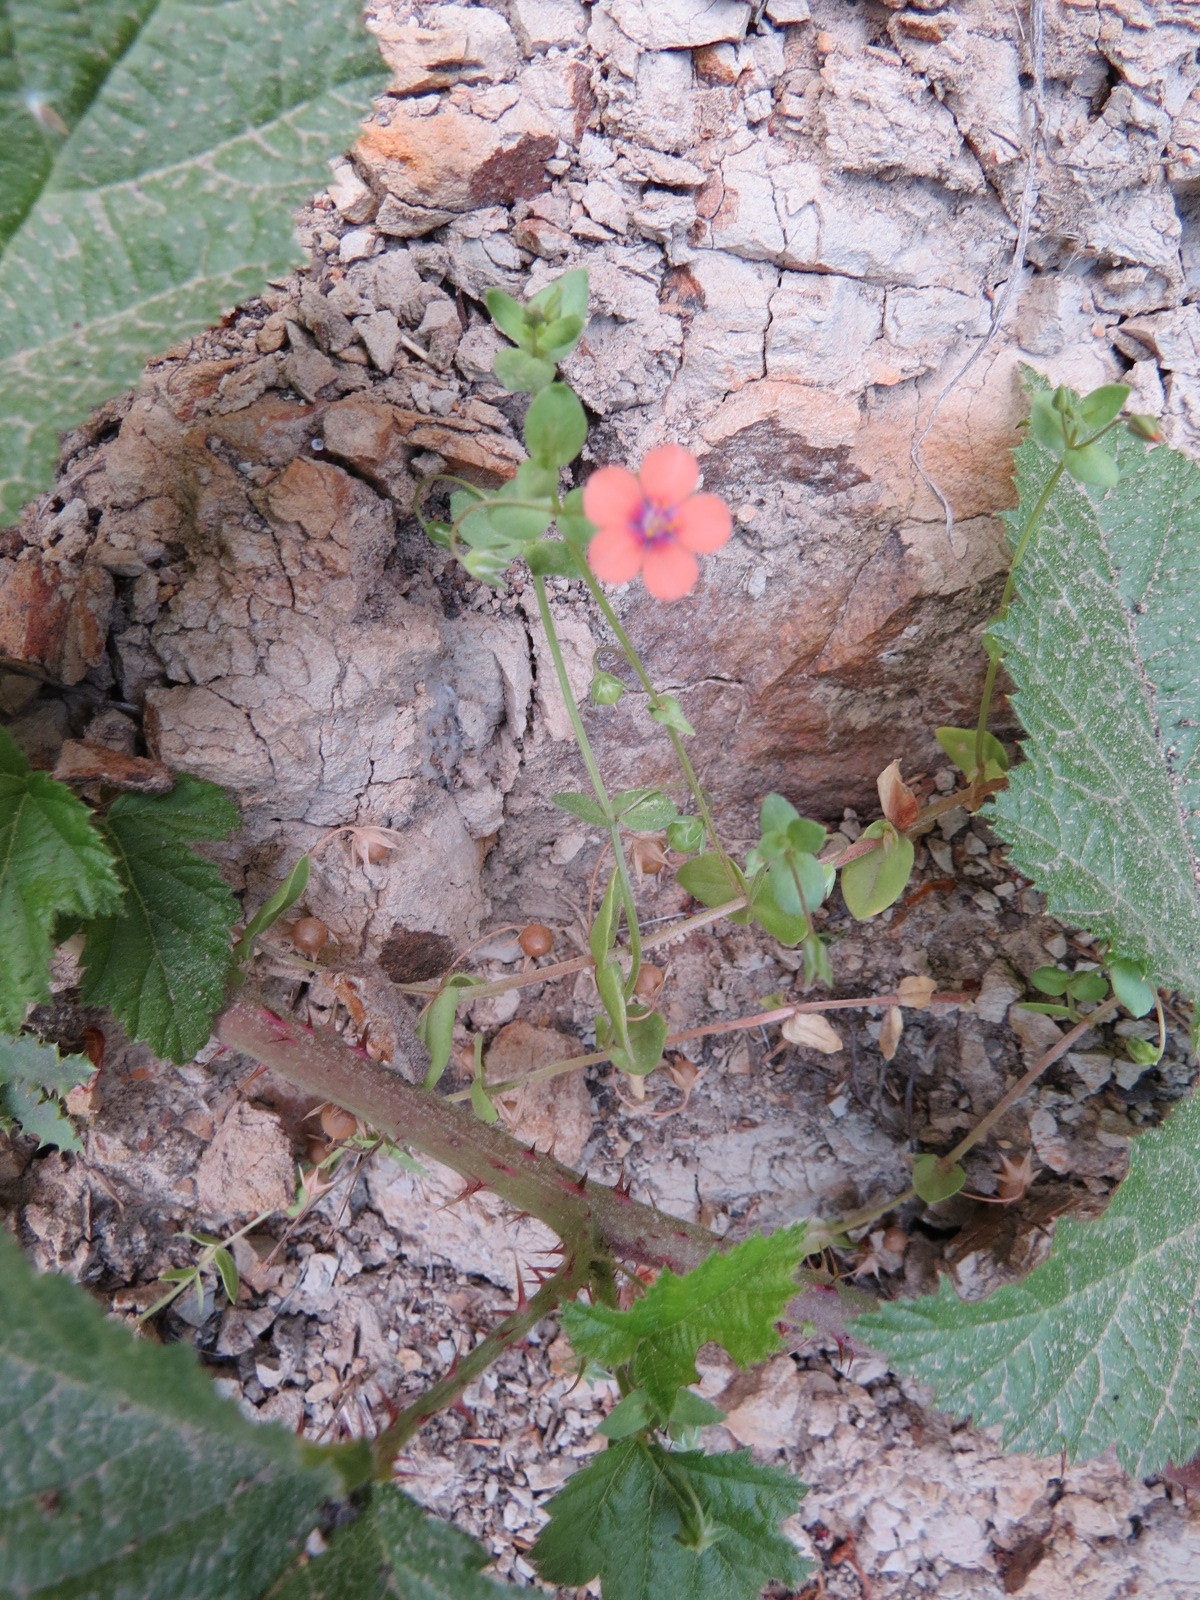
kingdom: Plantae
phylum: Tracheophyta
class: Magnoliopsida
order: Ericales
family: Primulaceae
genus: Lysimachia
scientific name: Lysimachia arvensis
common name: Scarlet pimpernel
